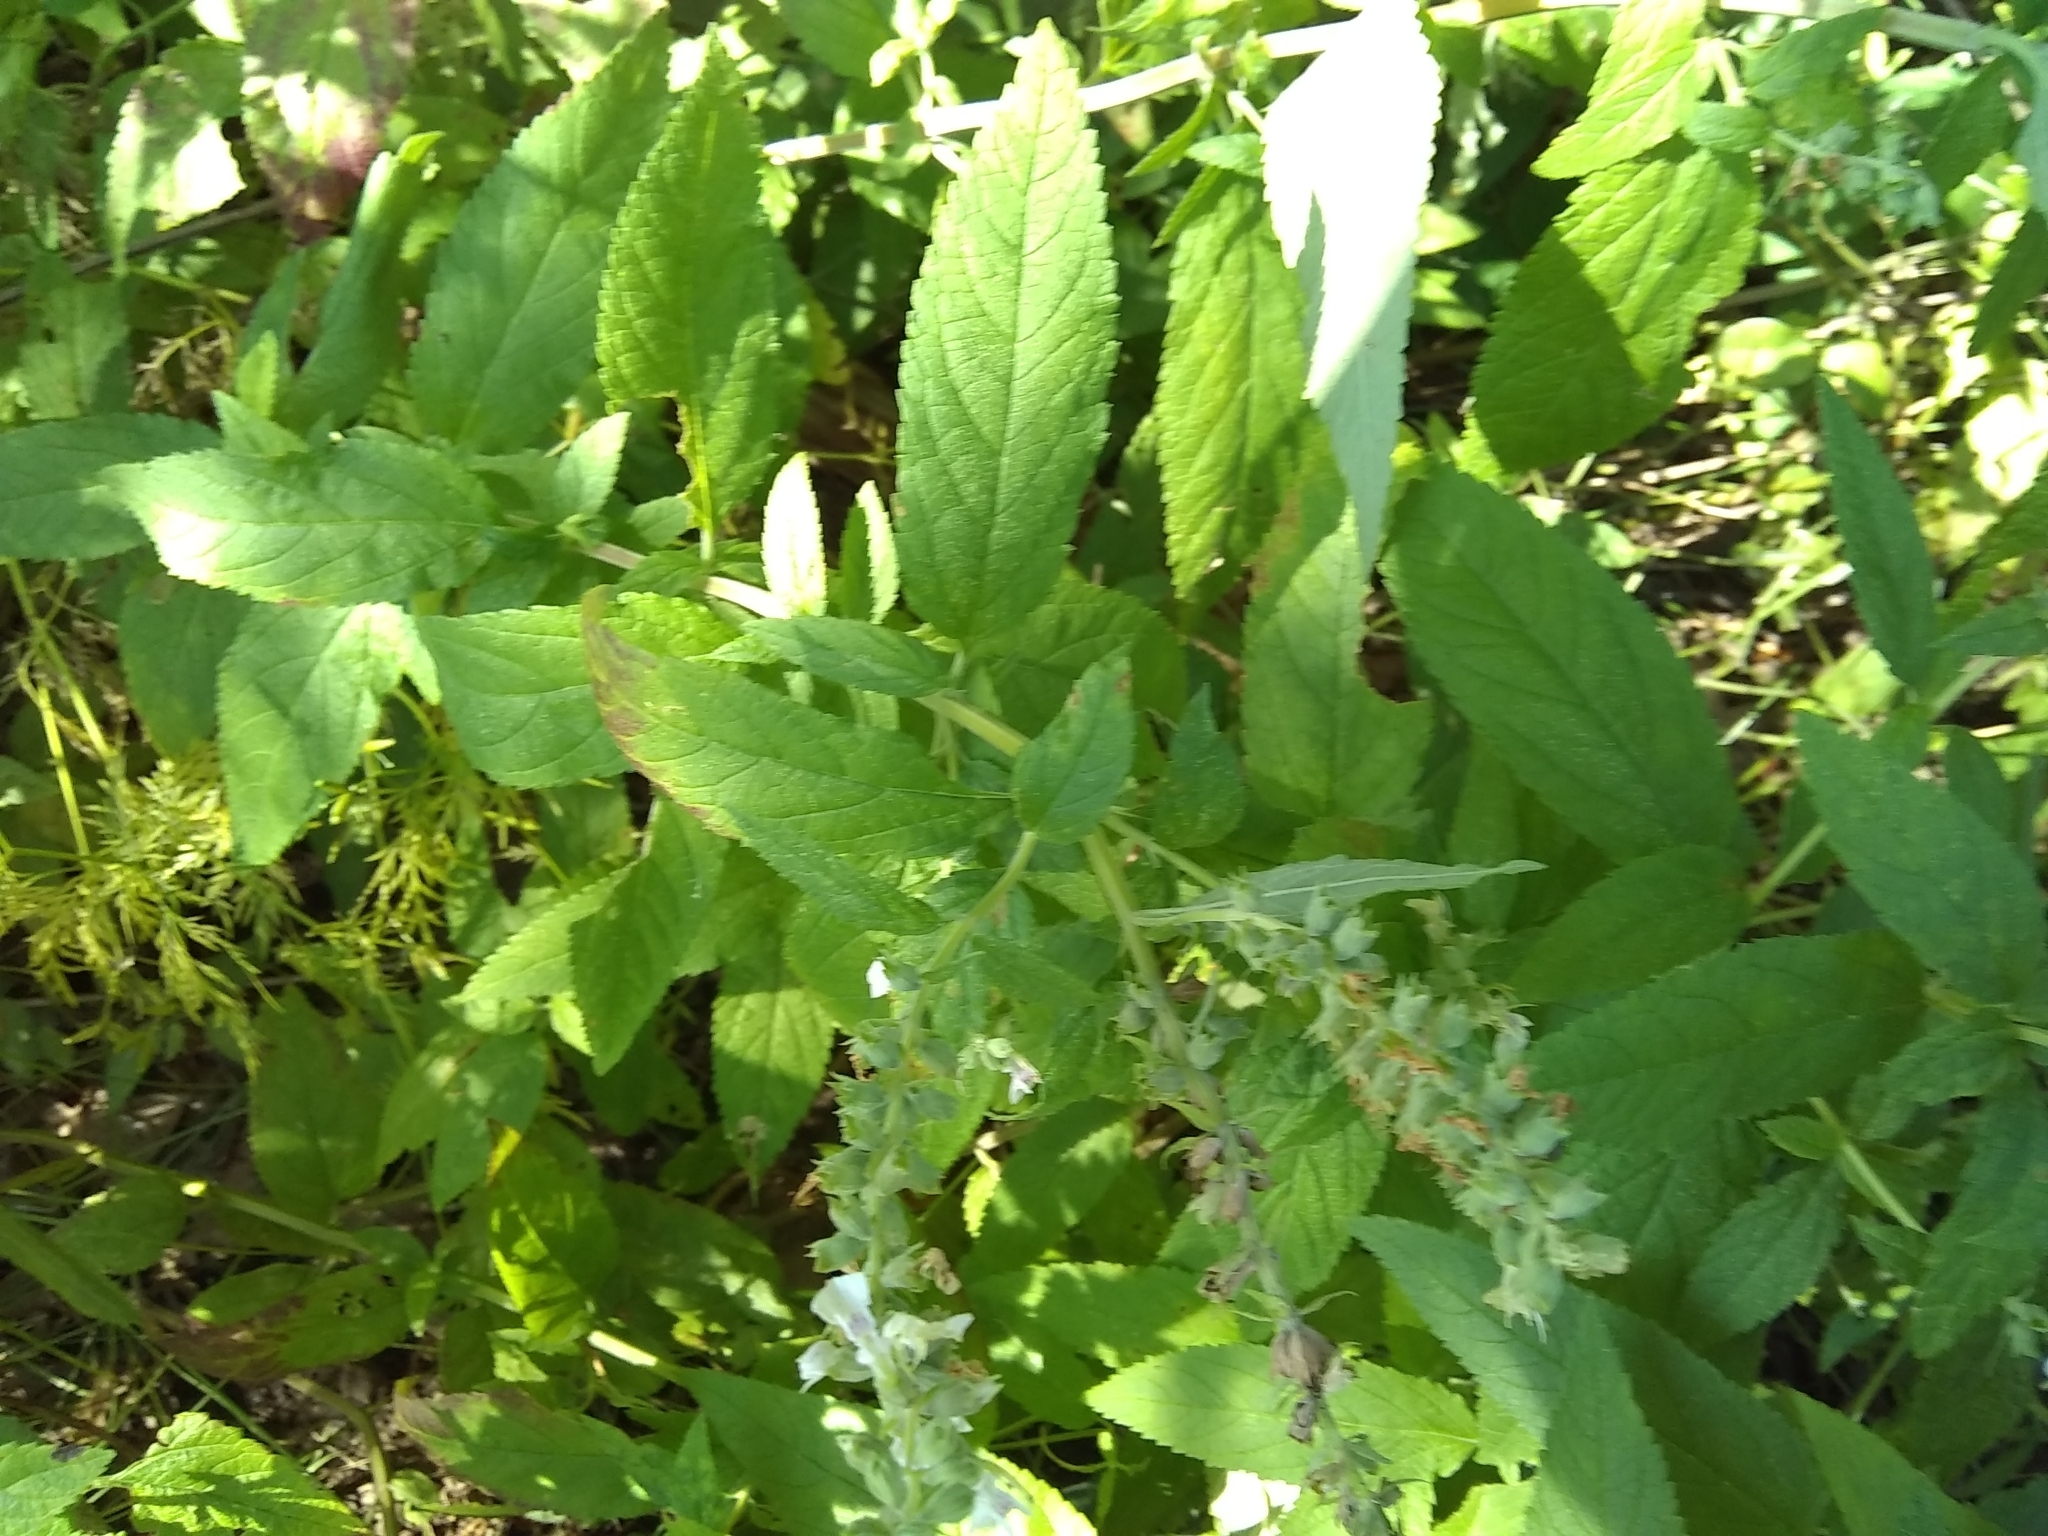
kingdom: Plantae
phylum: Tracheophyta
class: Magnoliopsida
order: Lamiales
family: Lamiaceae
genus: Teucrium
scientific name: Teucrium canadense
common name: American germander
